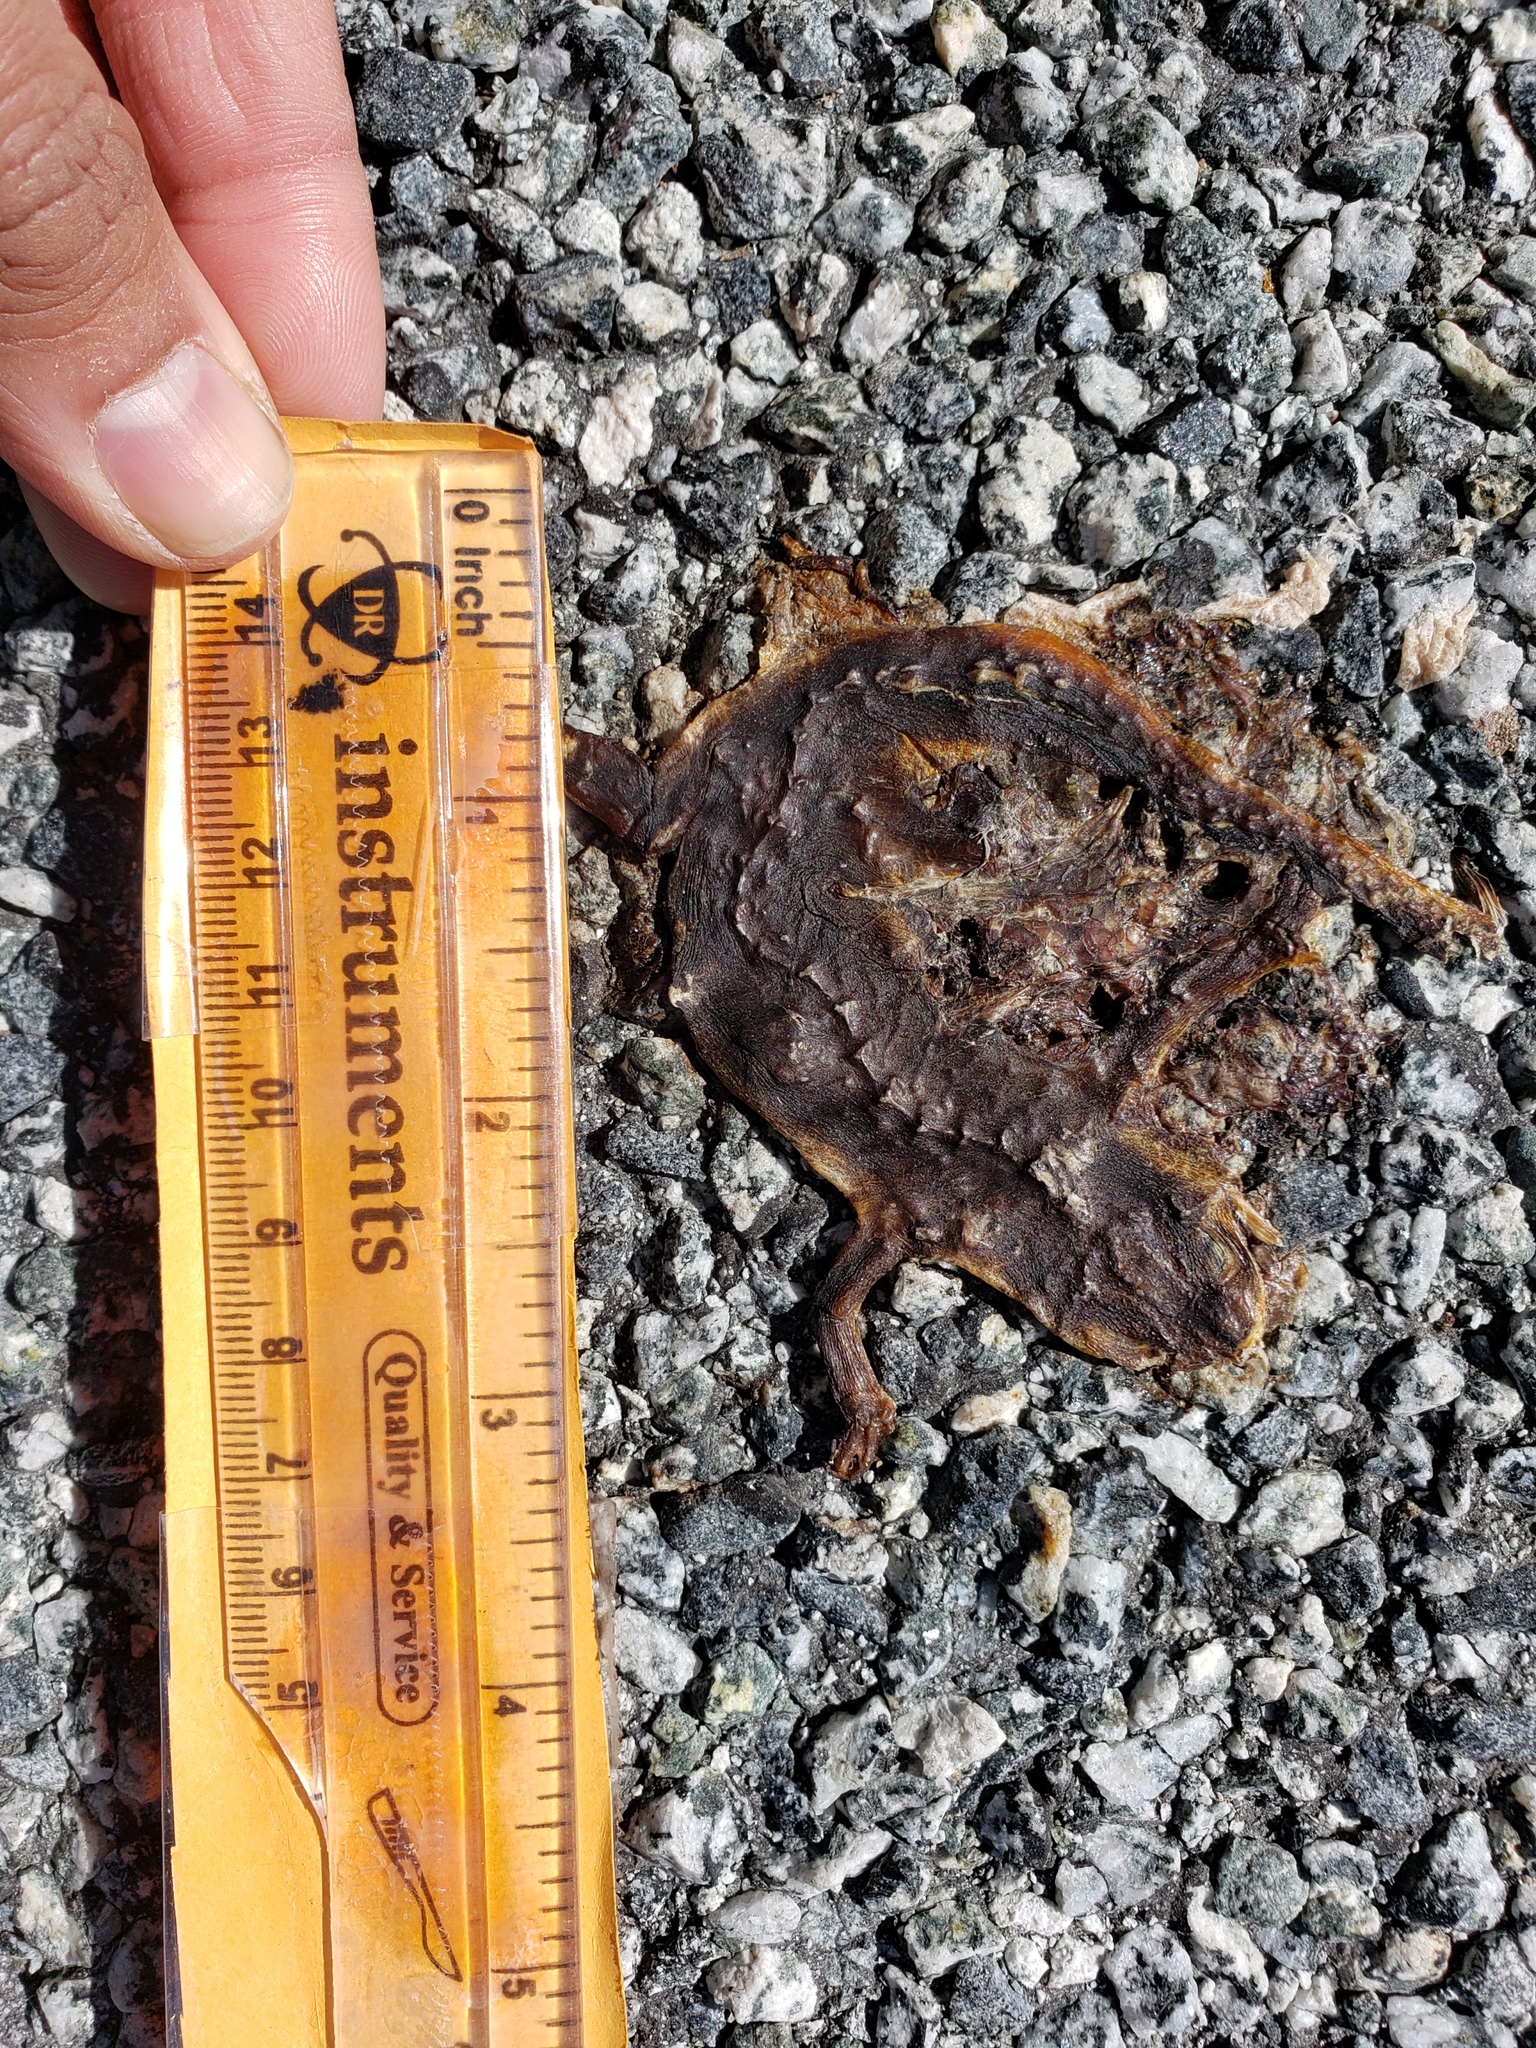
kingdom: Animalia
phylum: Chordata
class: Amphibia
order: Caudata
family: Salamandridae
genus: Taricha
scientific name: Taricha
